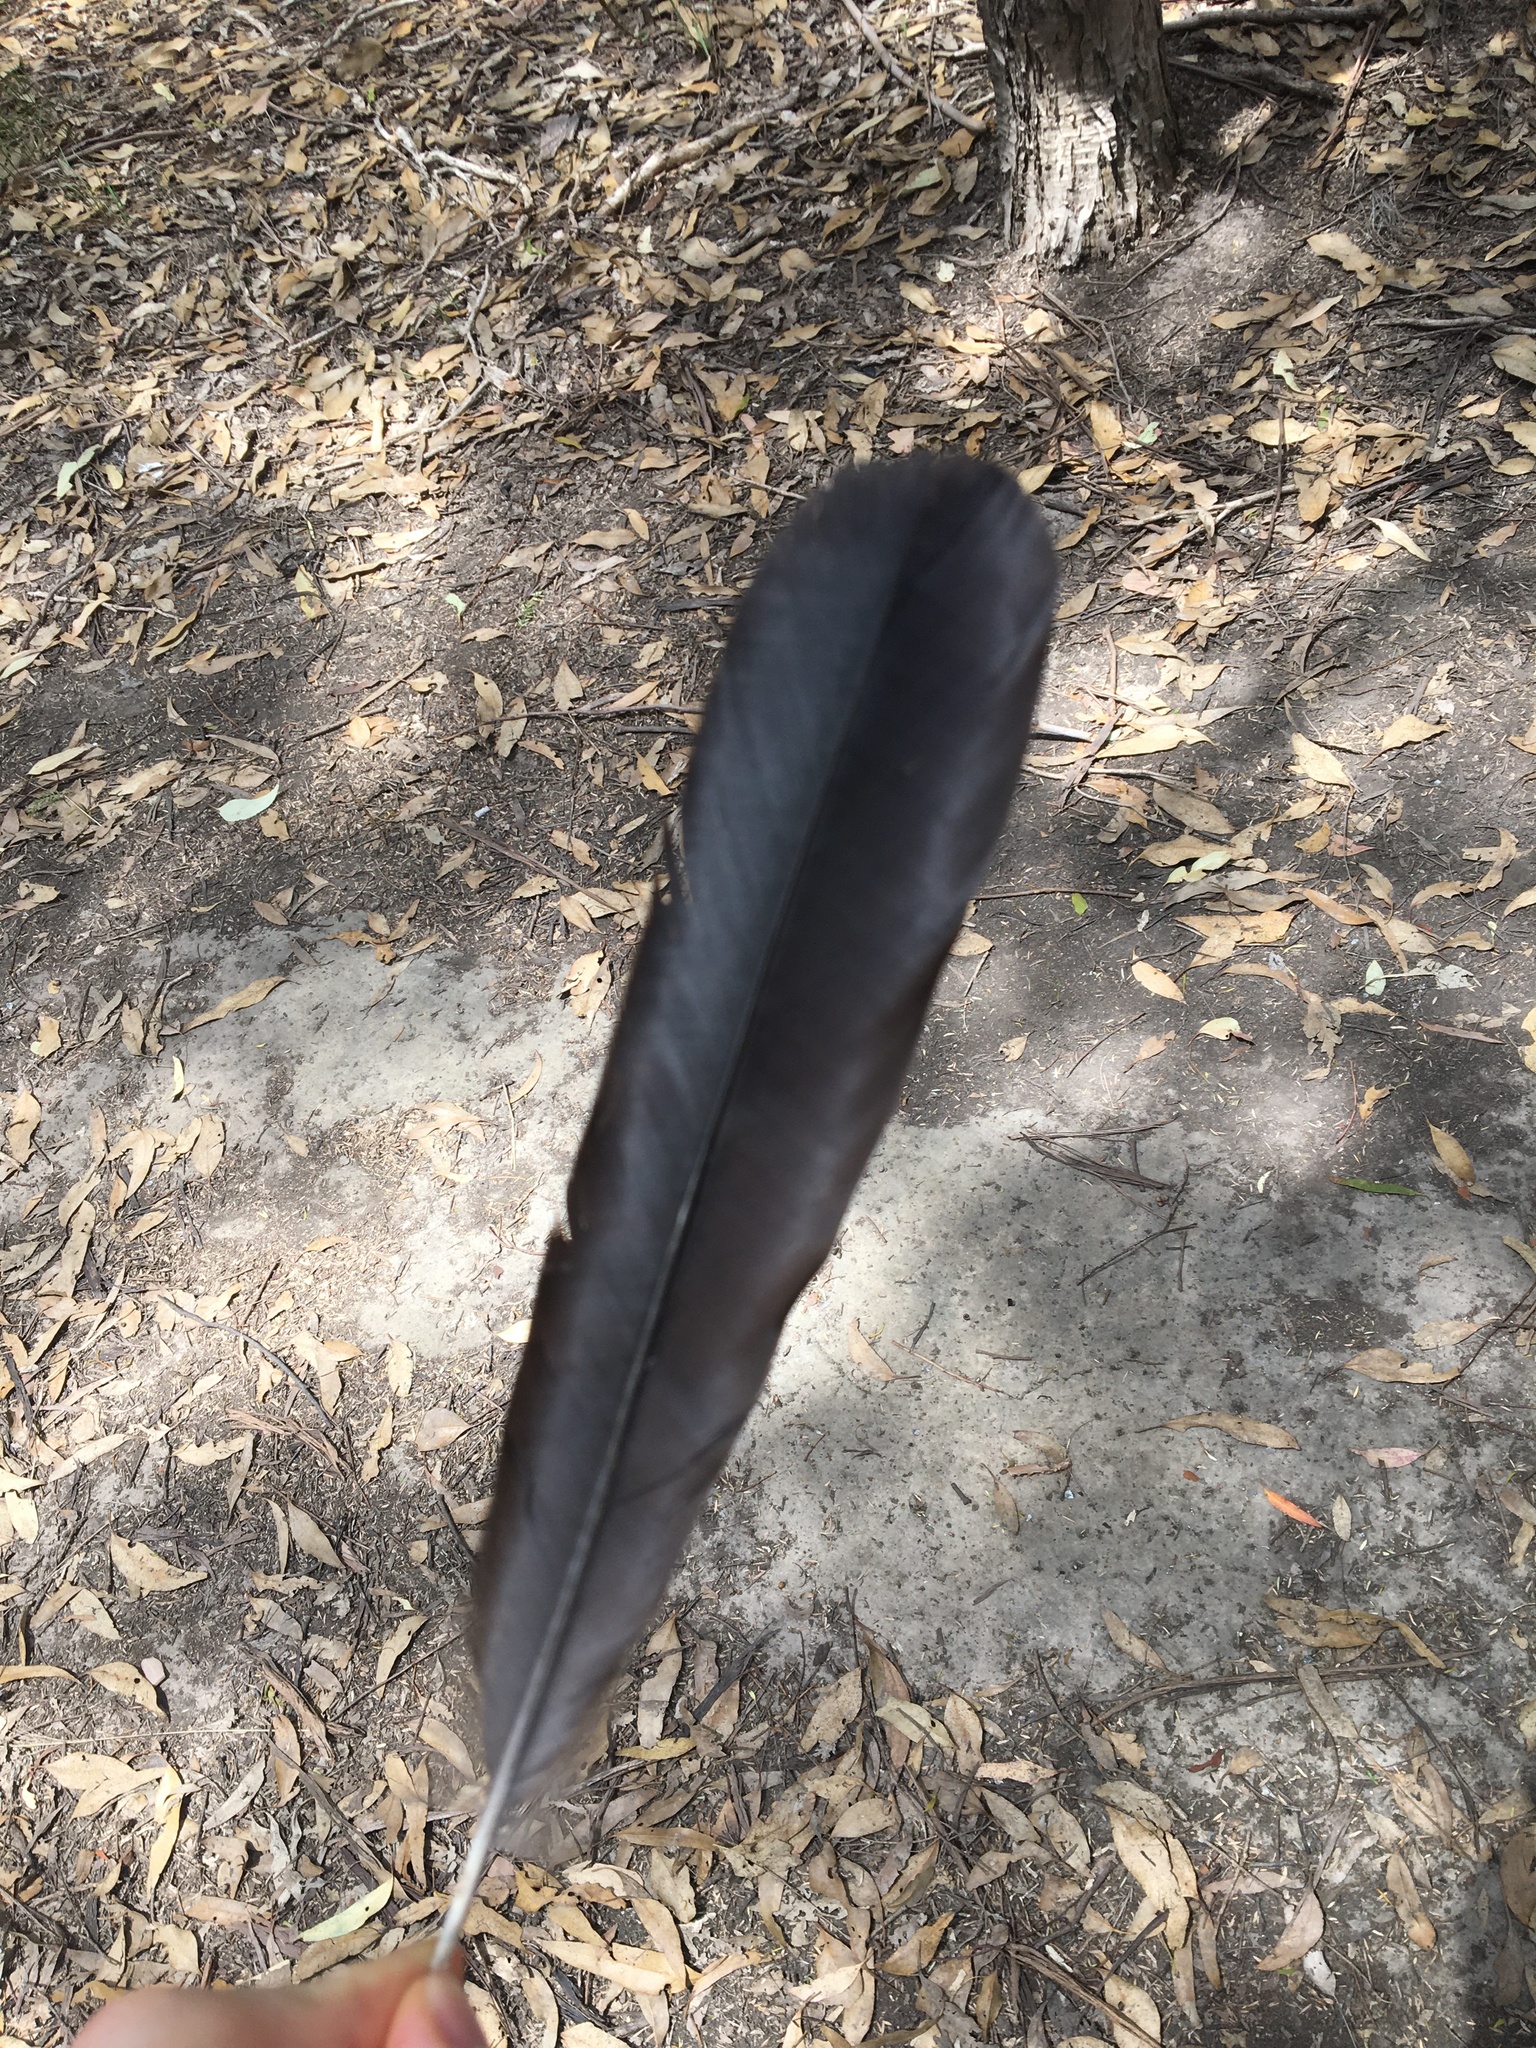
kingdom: Animalia
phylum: Chordata
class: Aves
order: Passeriformes
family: Corvidae
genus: Corvus
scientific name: Corvus coronoides
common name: Australian raven
